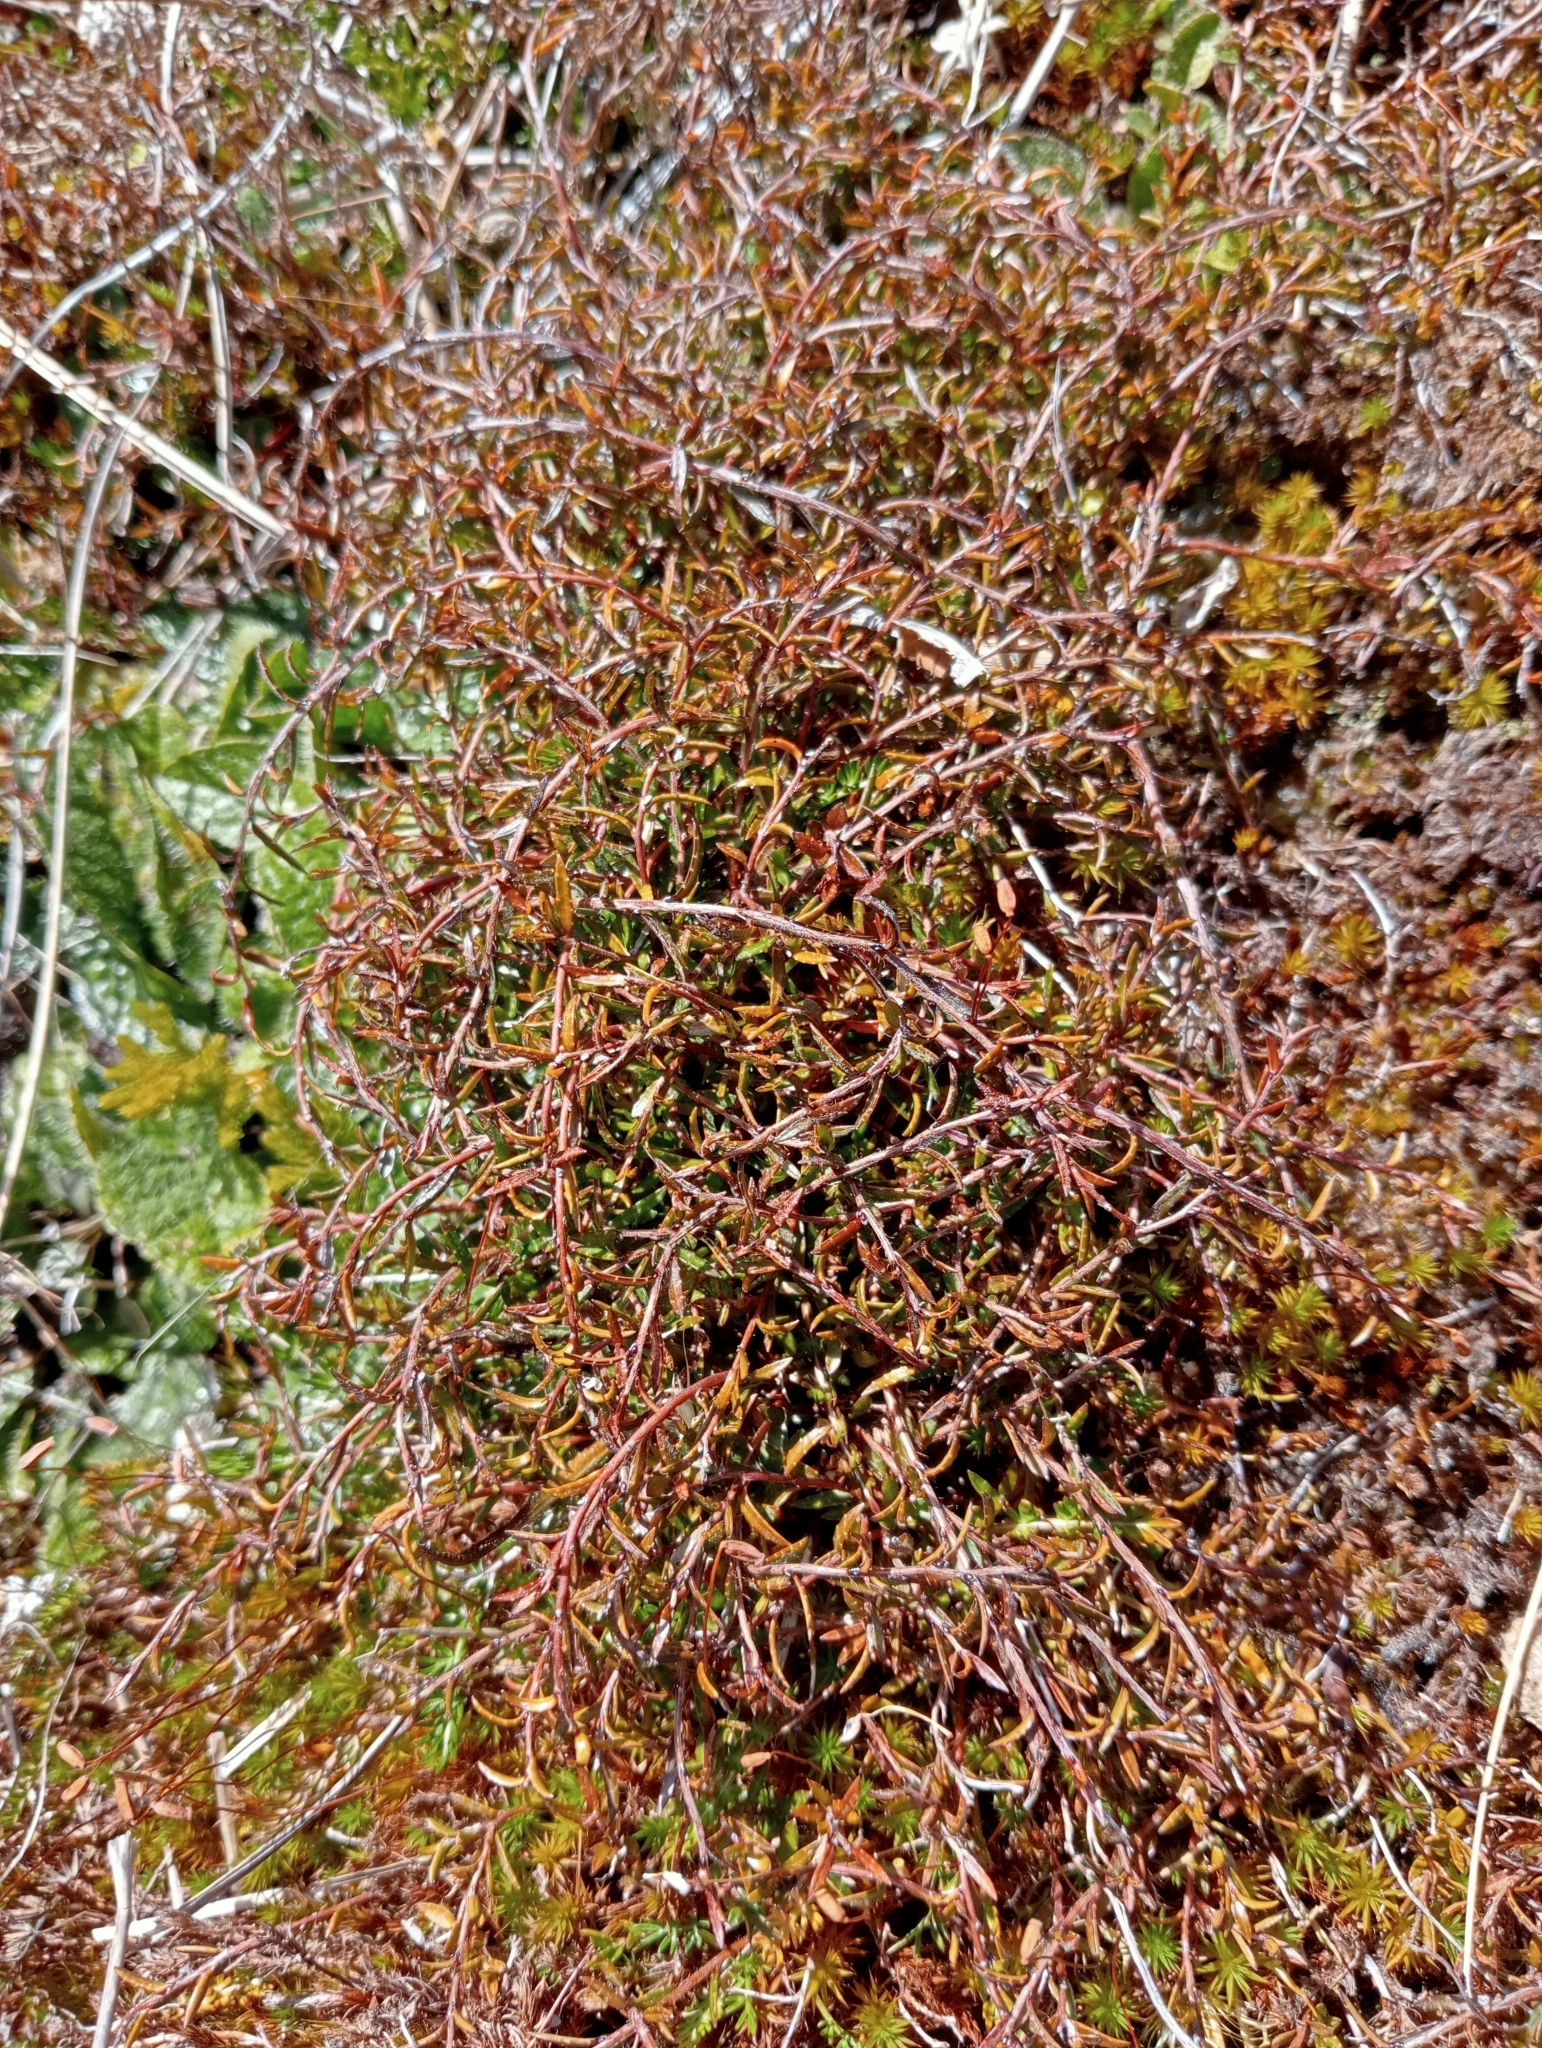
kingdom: Plantae
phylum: Tracheophyta
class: Magnoliopsida
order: Ericales
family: Ericaceae
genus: Gaultheria
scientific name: Gaultheria macrostigma
